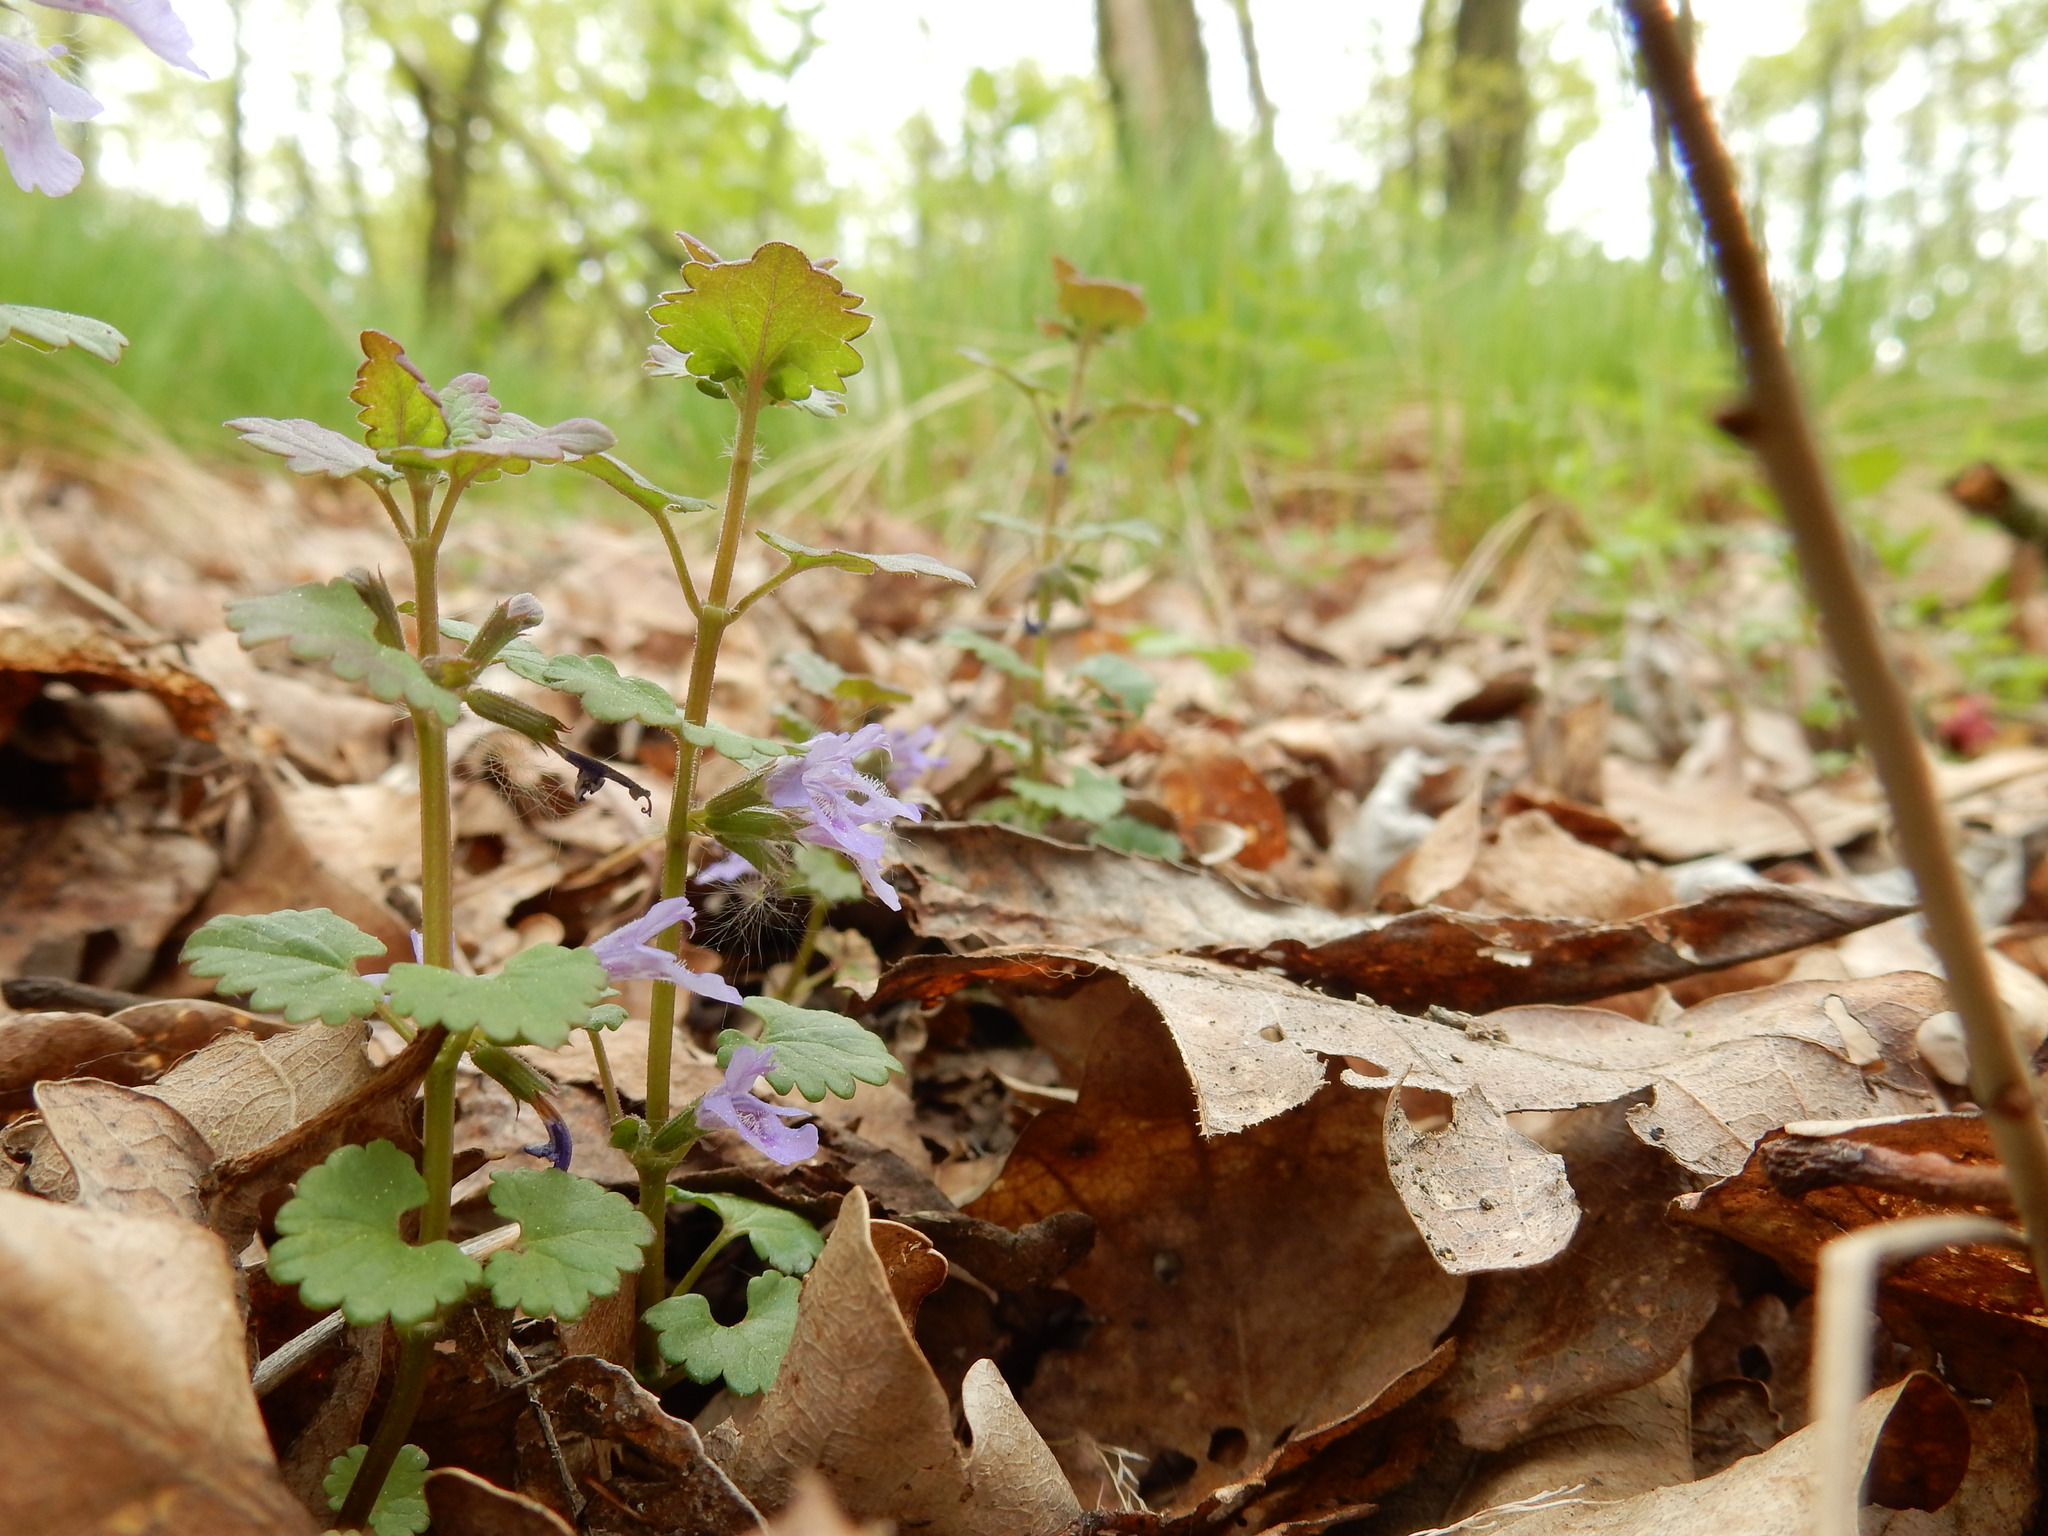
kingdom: Plantae
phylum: Tracheophyta
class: Magnoliopsida
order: Lamiales
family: Lamiaceae
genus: Glechoma
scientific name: Glechoma hederacea
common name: Ground ivy
